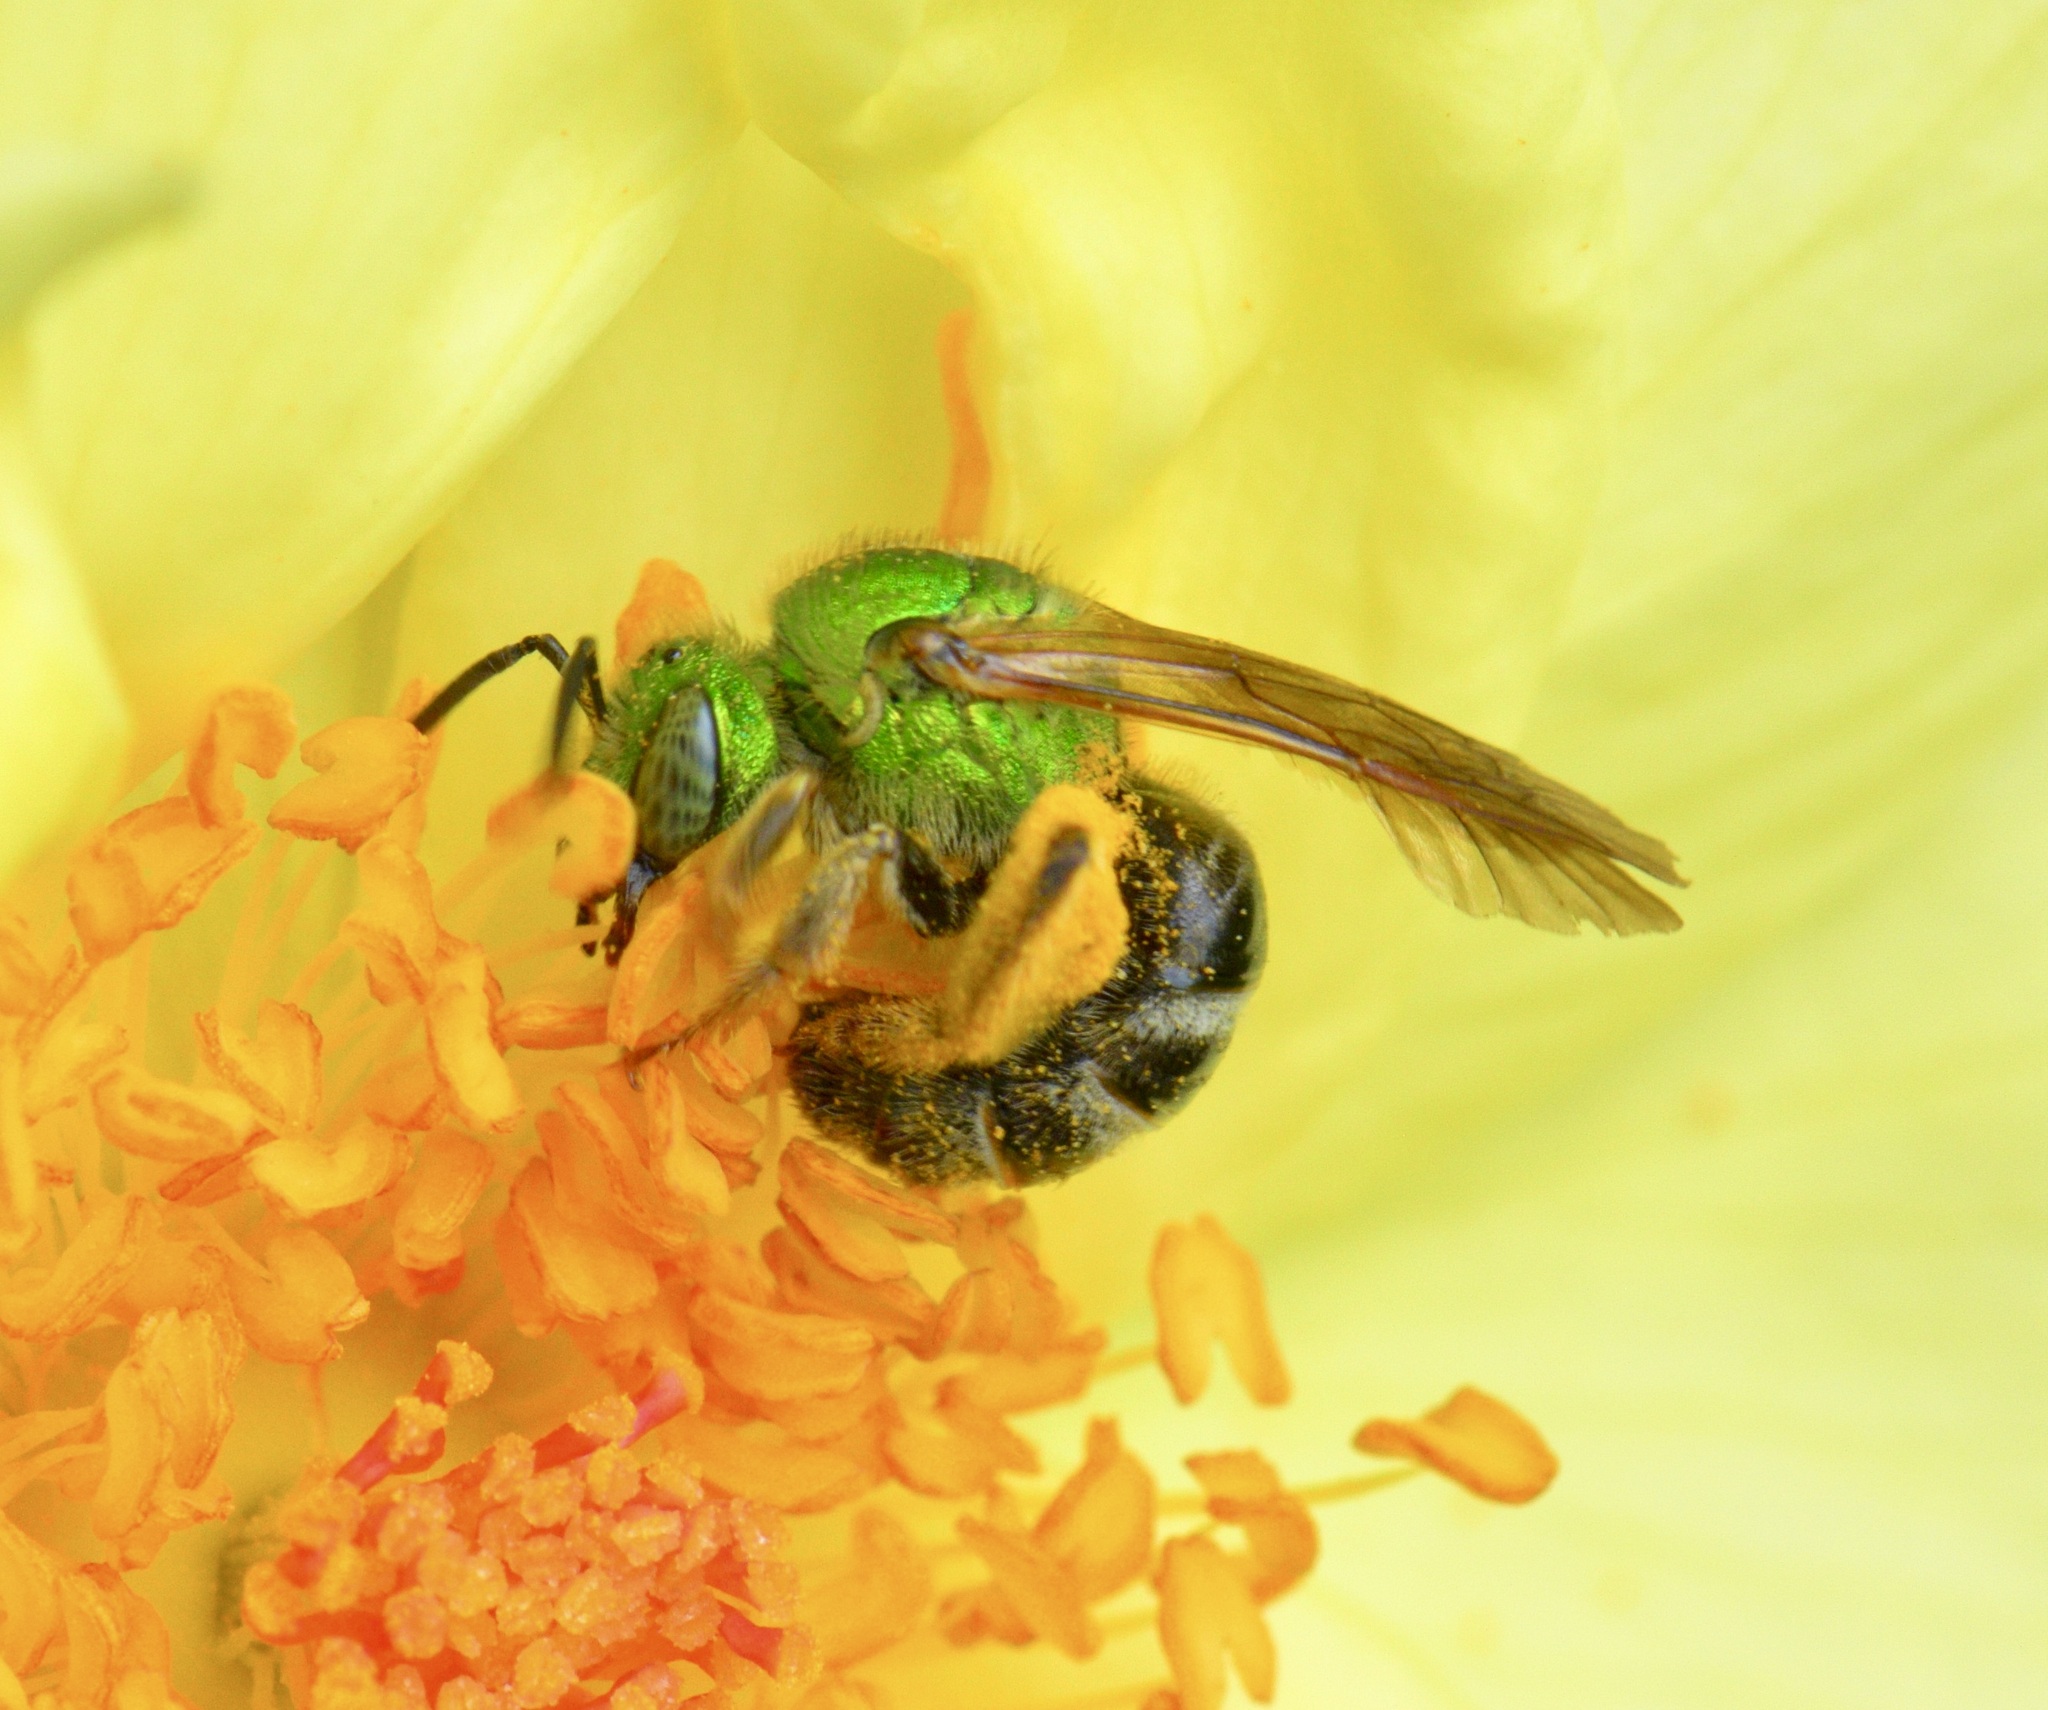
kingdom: Animalia
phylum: Arthropoda
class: Insecta
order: Hymenoptera
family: Halictidae
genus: Agapostemon
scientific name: Agapostemon virescens
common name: Bicolored striped sweat bee
